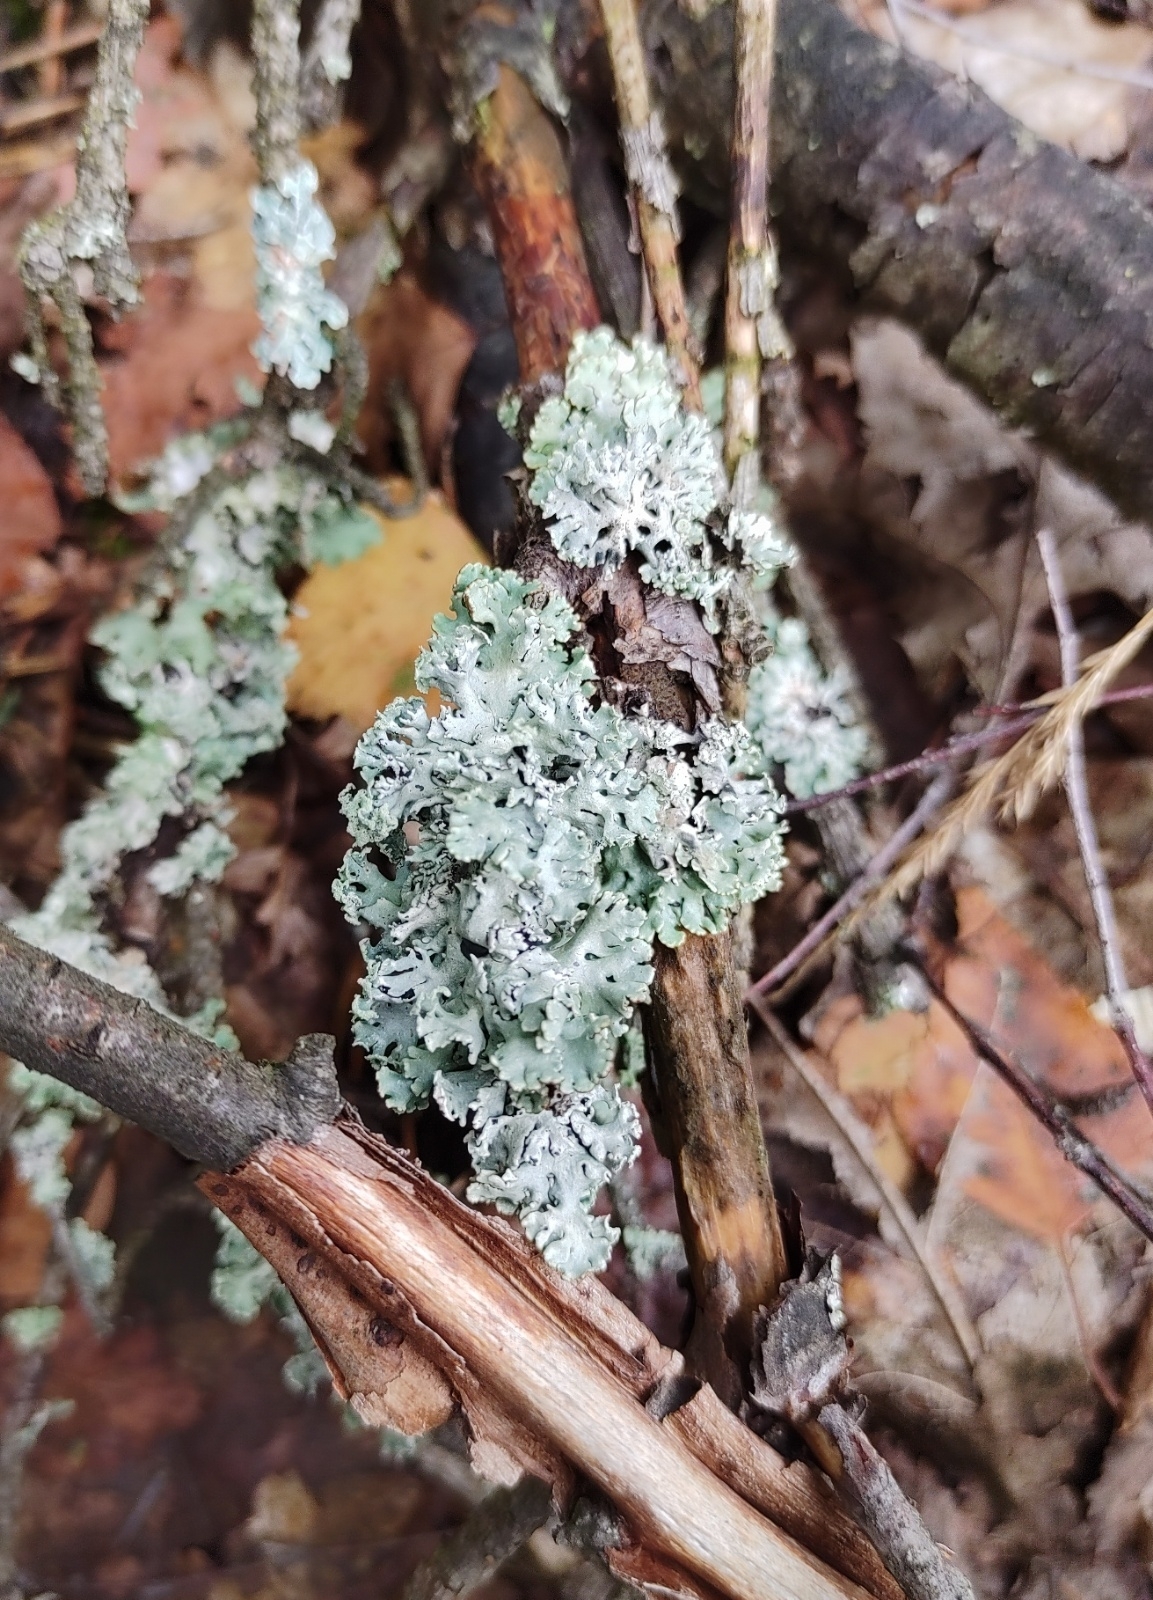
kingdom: Fungi
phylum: Ascomycota
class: Lecanoromycetes
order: Lecanorales
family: Parmeliaceae
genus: Hypogymnia
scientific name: Hypogymnia physodes
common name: Dark crottle
